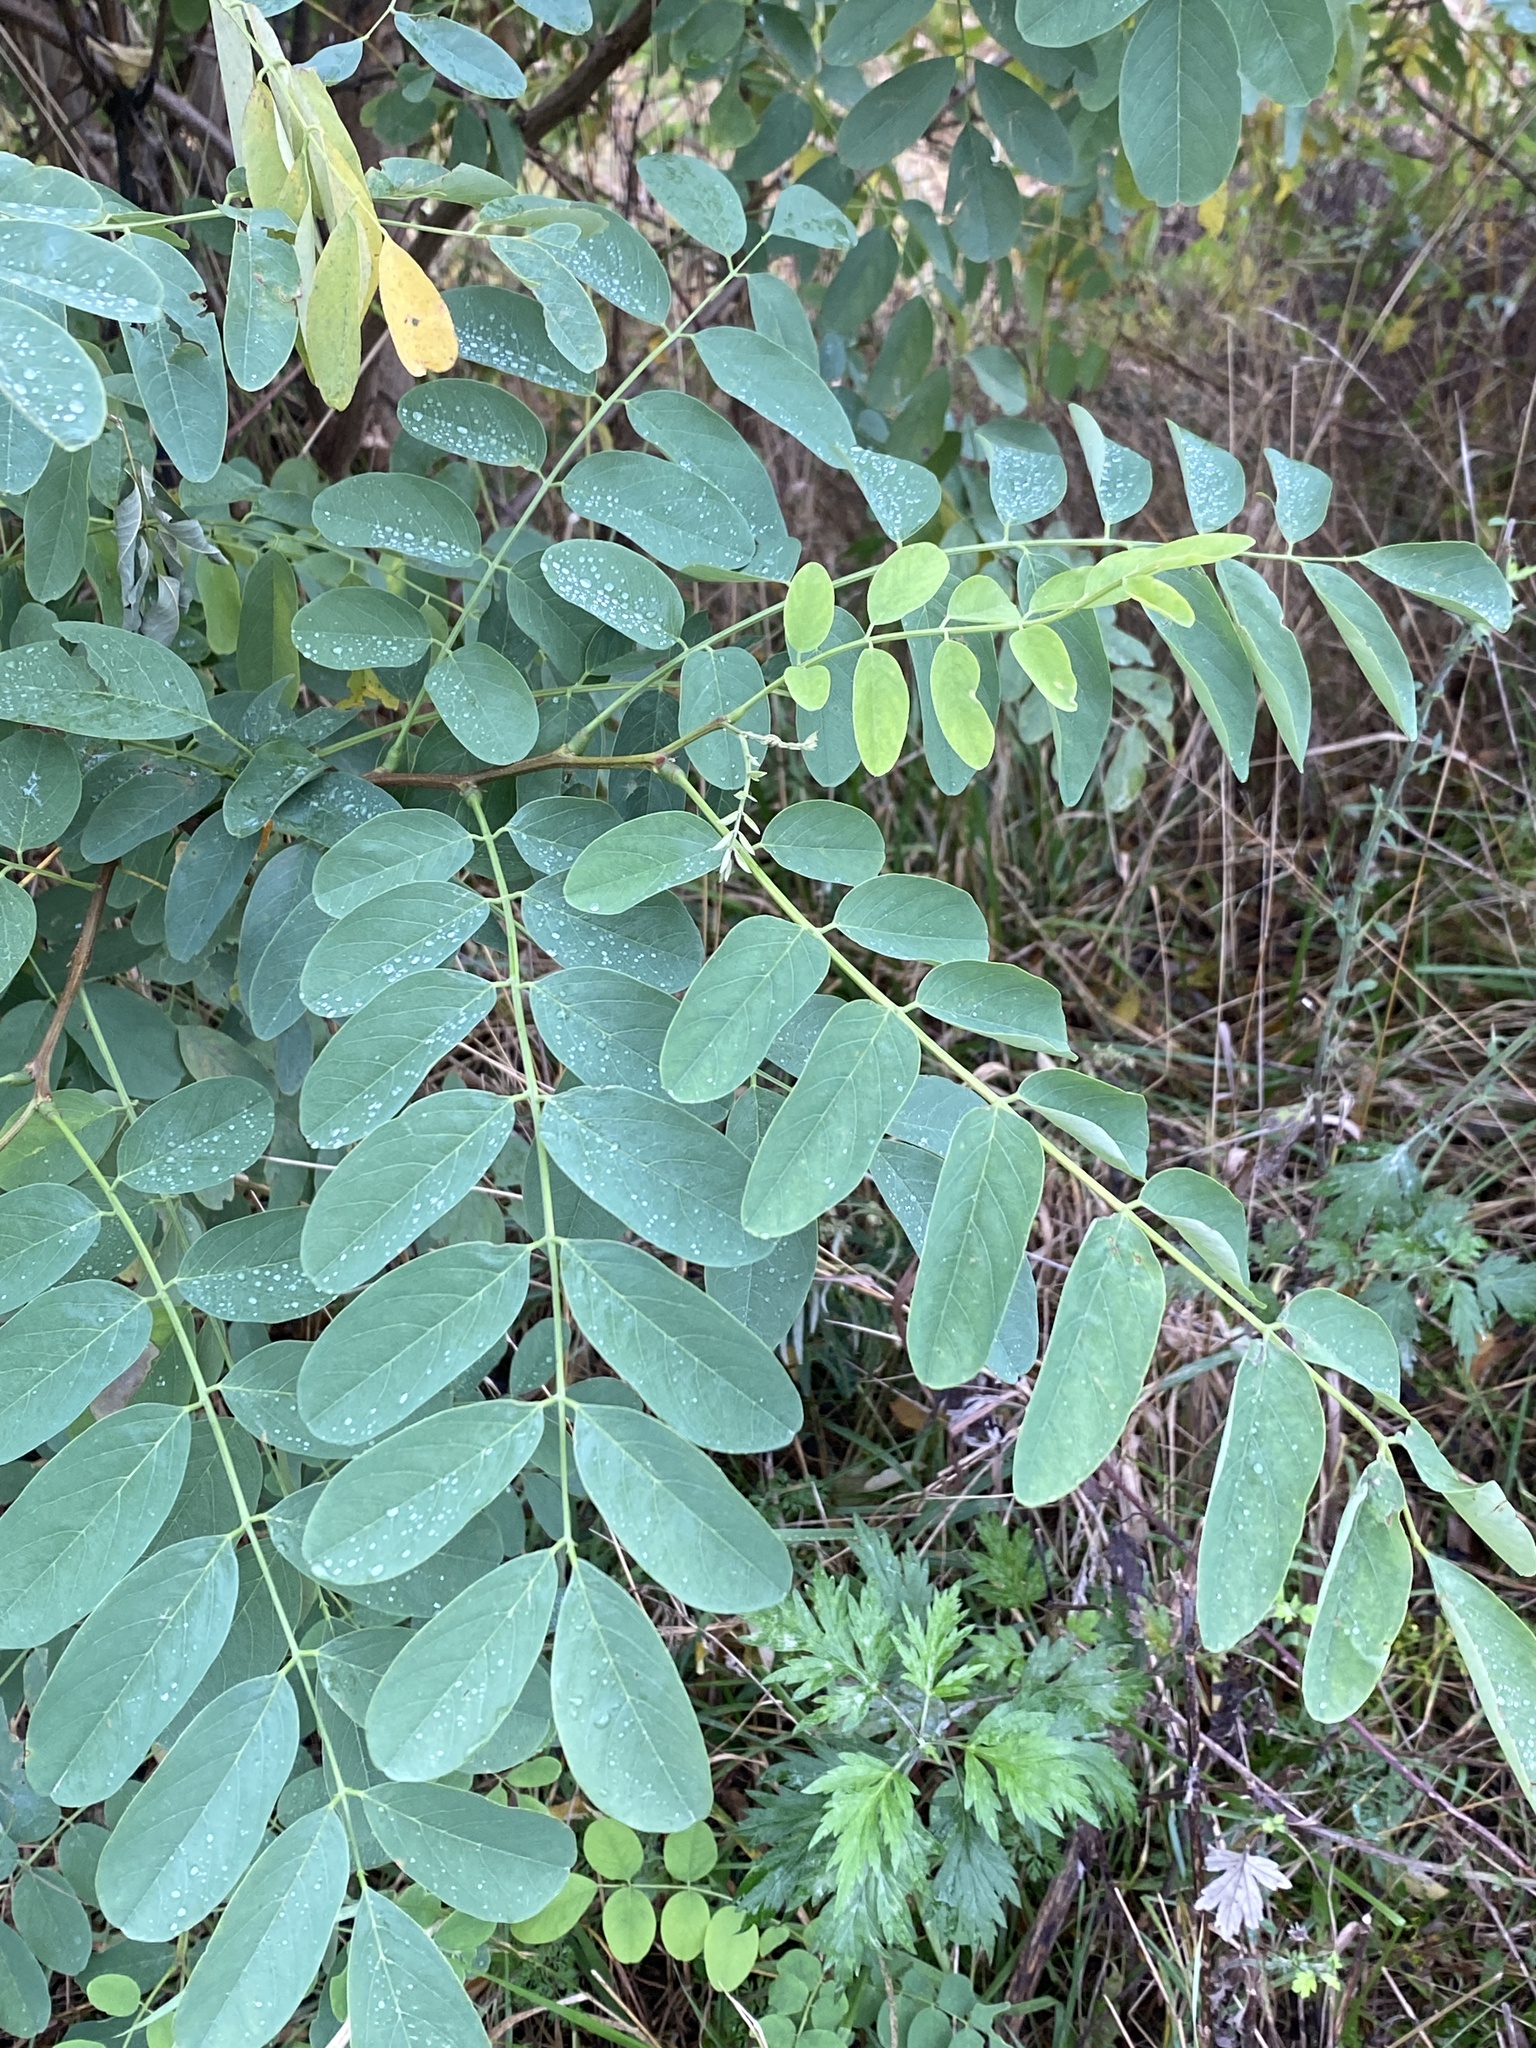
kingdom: Plantae
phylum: Tracheophyta
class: Magnoliopsida
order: Fabales
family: Fabaceae
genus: Robinia
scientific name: Robinia pseudoacacia
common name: Black locust
